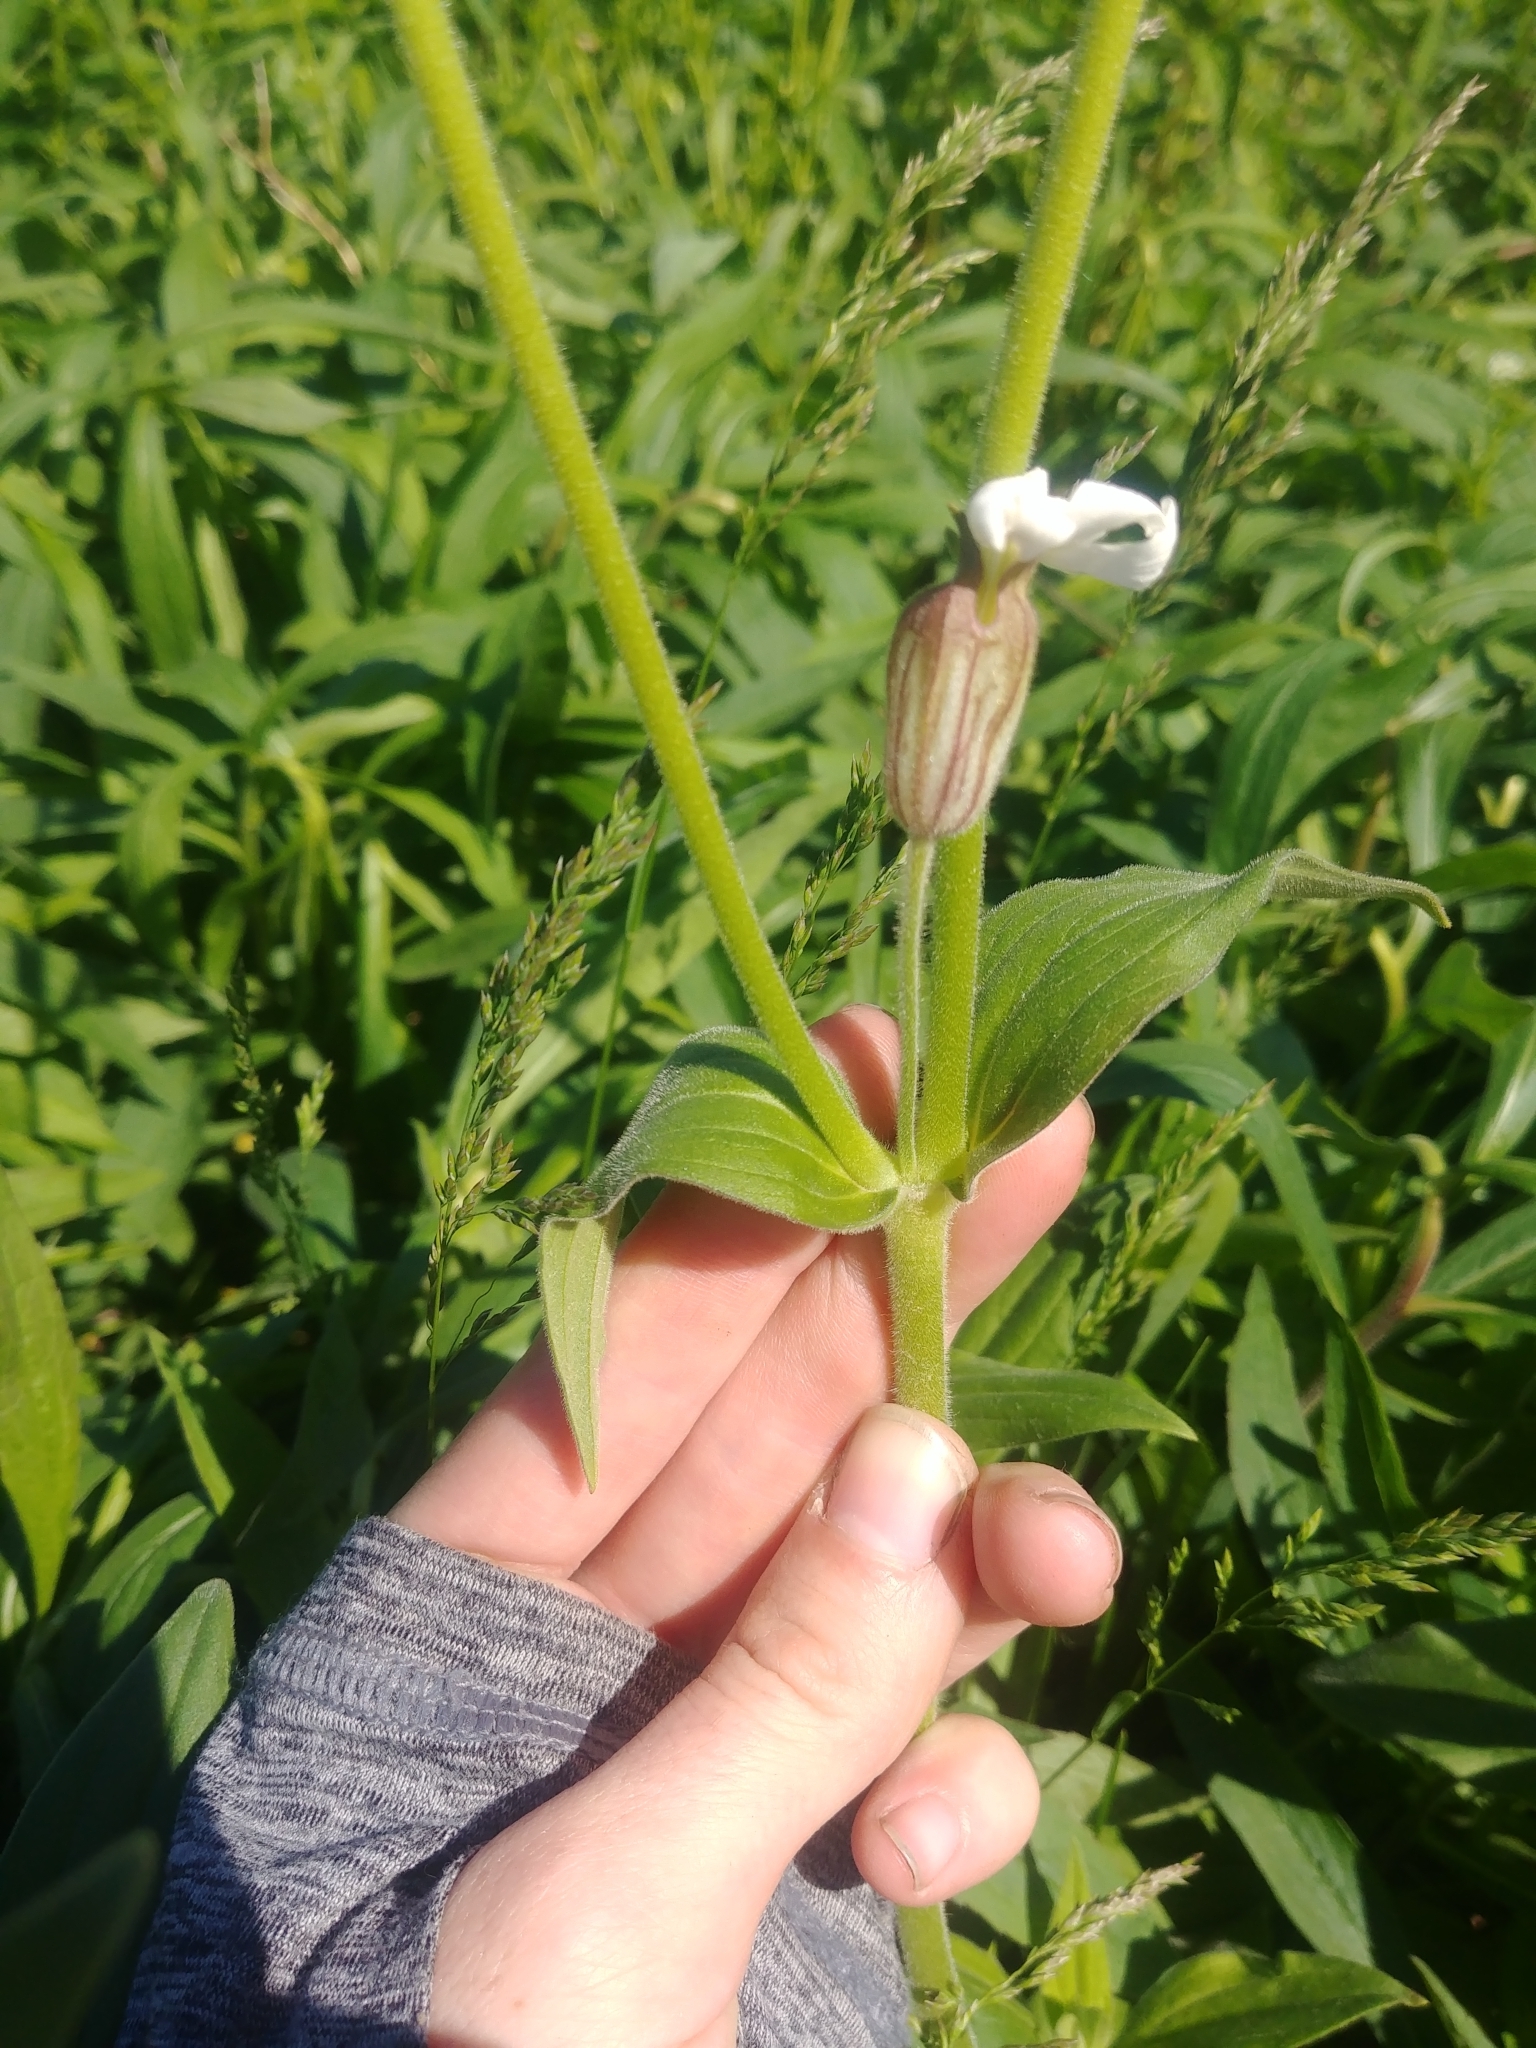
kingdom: Plantae
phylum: Tracheophyta
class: Magnoliopsida
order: Caryophyllales
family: Caryophyllaceae
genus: Silene
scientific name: Silene latifolia
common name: White campion
